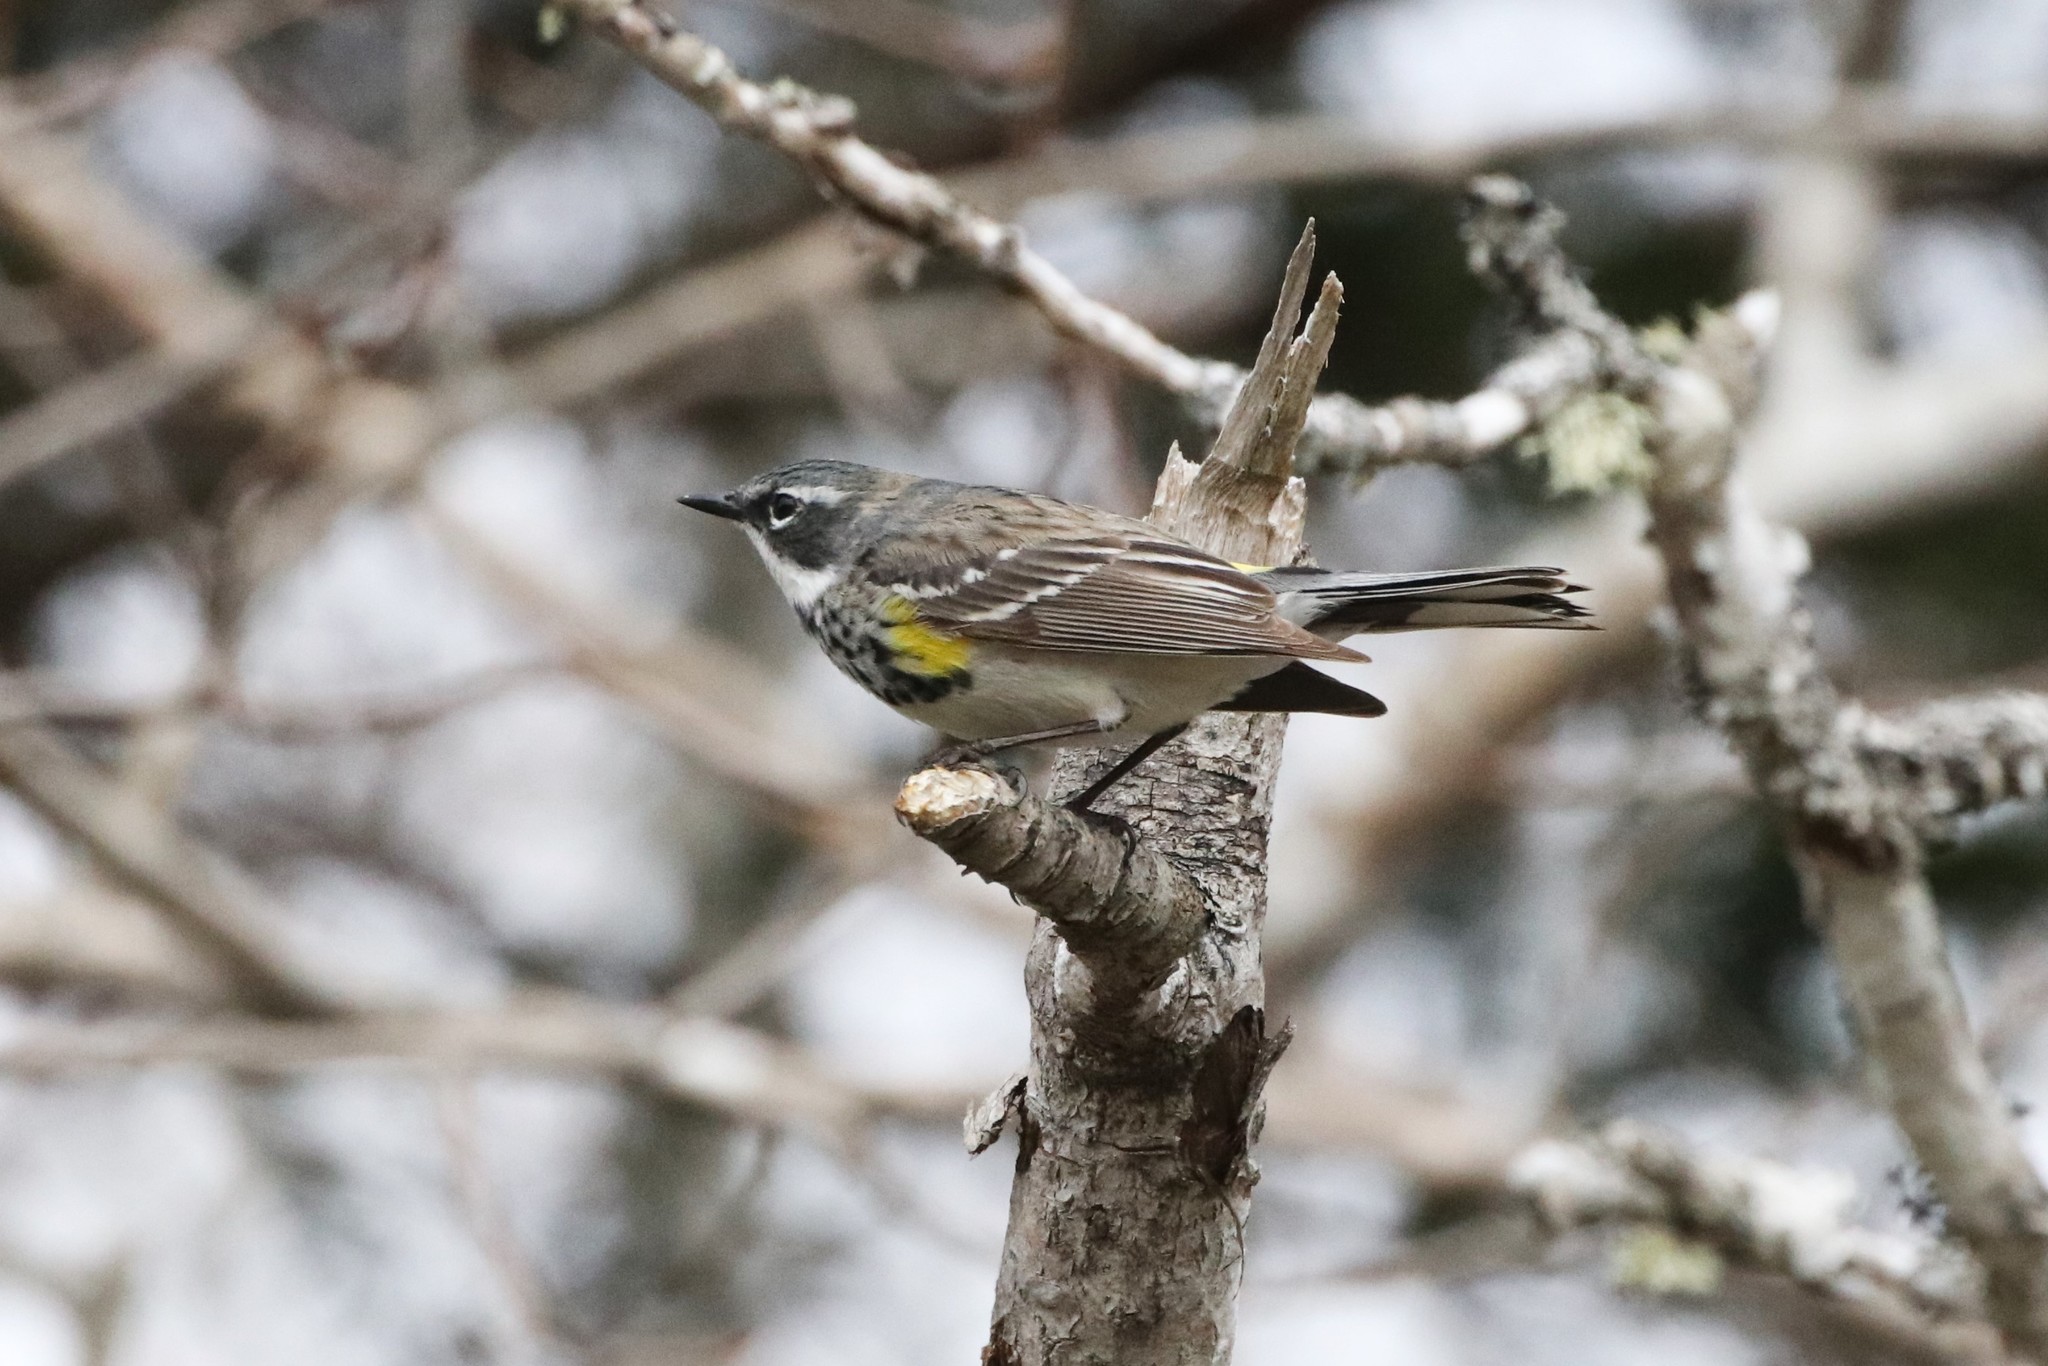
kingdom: Animalia
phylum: Chordata
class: Aves
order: Passeriformes
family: Parulidae
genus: Setophaga
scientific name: Setophaga coronata
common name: Myrtle warbler
